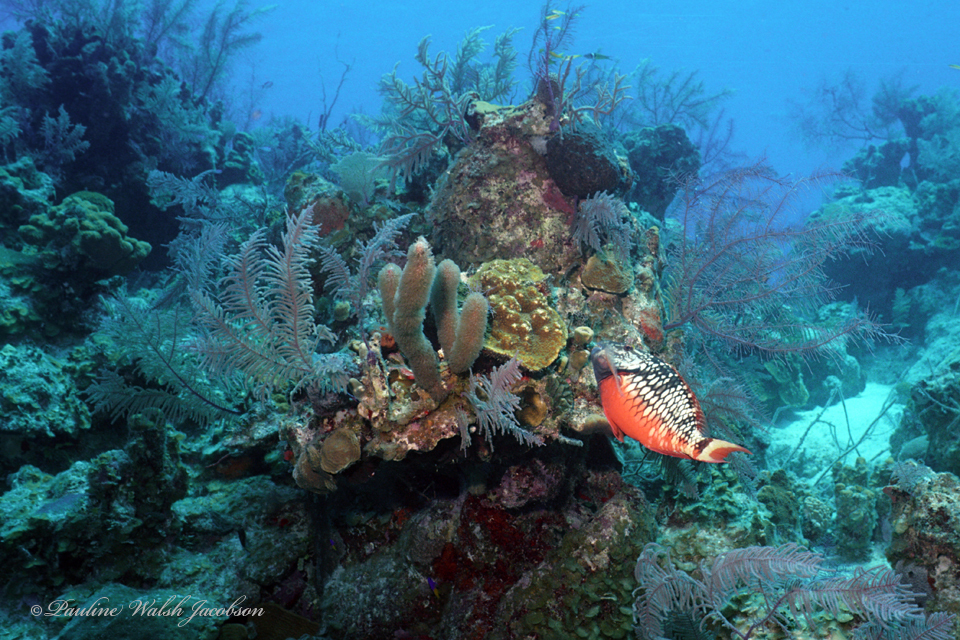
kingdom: Animalia
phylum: Chordata
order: Perciformes
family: Scaridae
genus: Sparisoma
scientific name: Sparisoma viride
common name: Stoplight parrotfish
